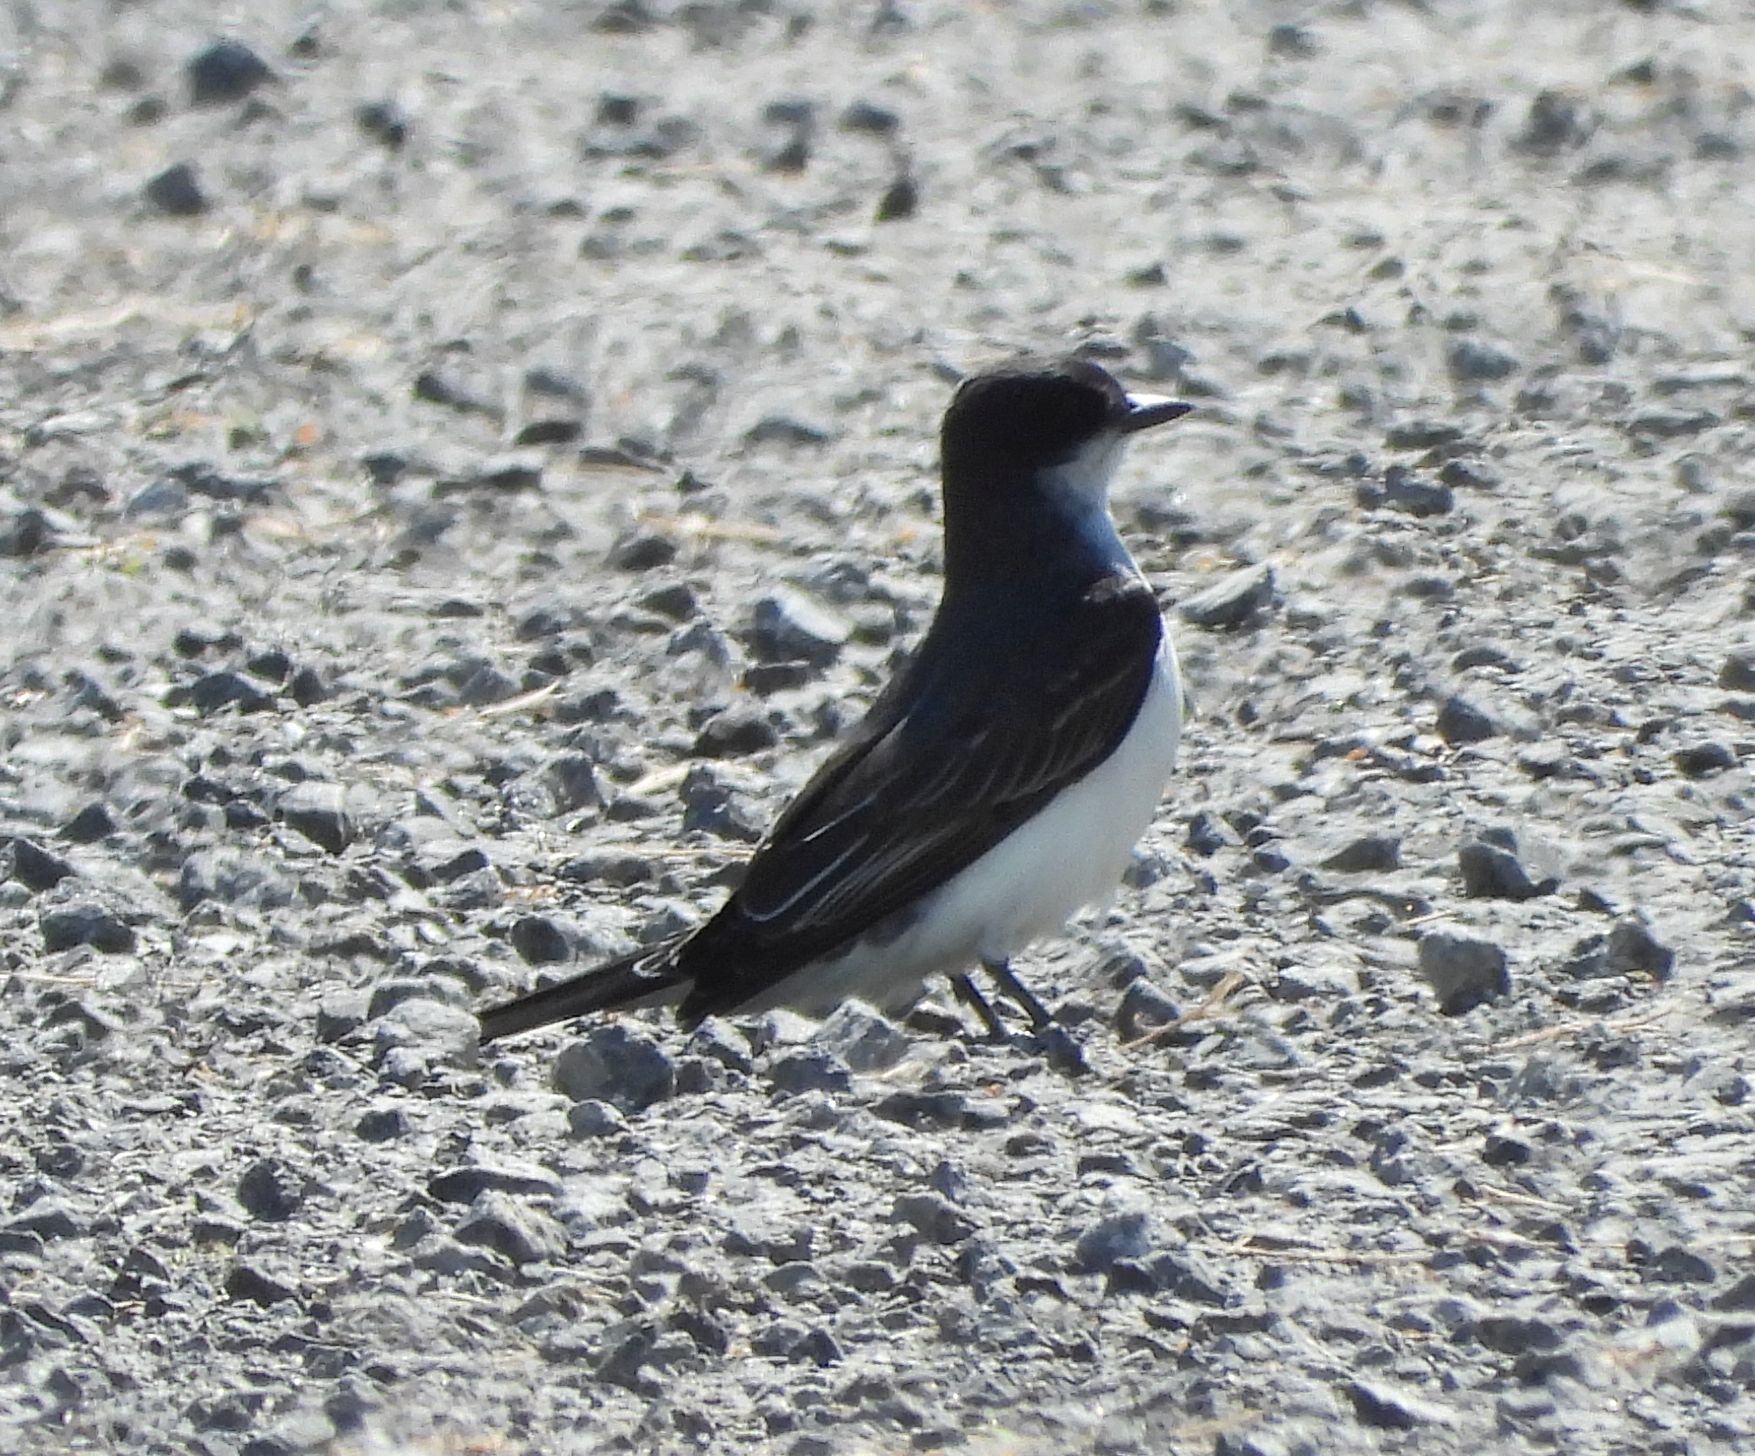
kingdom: Animalia
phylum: Chordata
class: Aves
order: Passeriformes
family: Tyrannidae
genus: Tyrannus
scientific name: Tyrannus tyrannus
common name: Eastern kingbird
